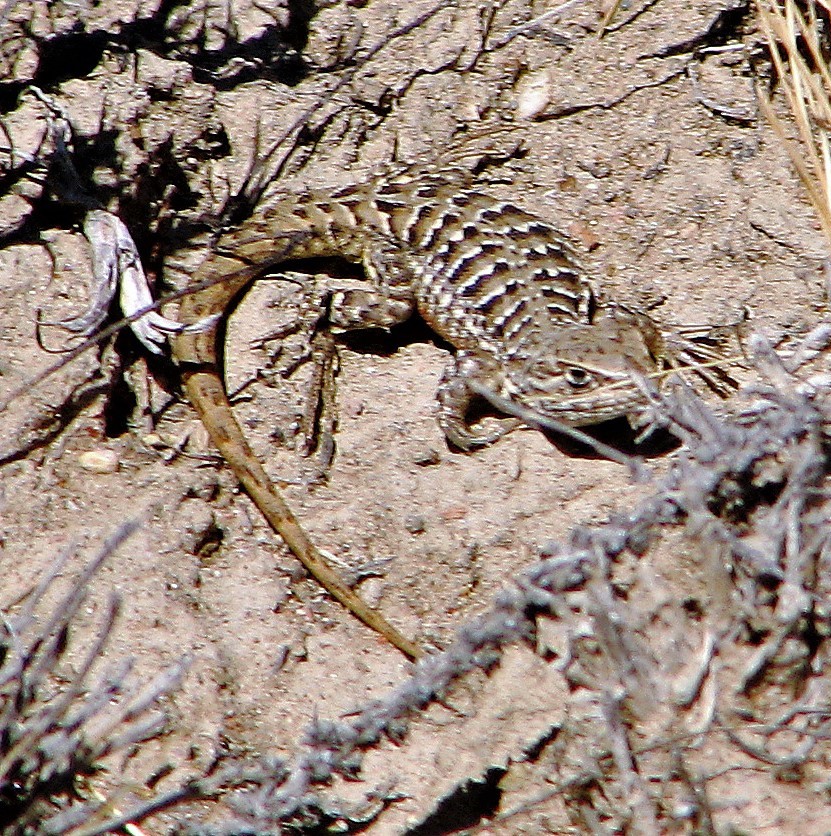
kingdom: Animalia
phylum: Chordata
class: Squamata
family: Liolaemidae
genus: Liolaemus
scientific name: Liolaemus kingii
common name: King's tree iguana
